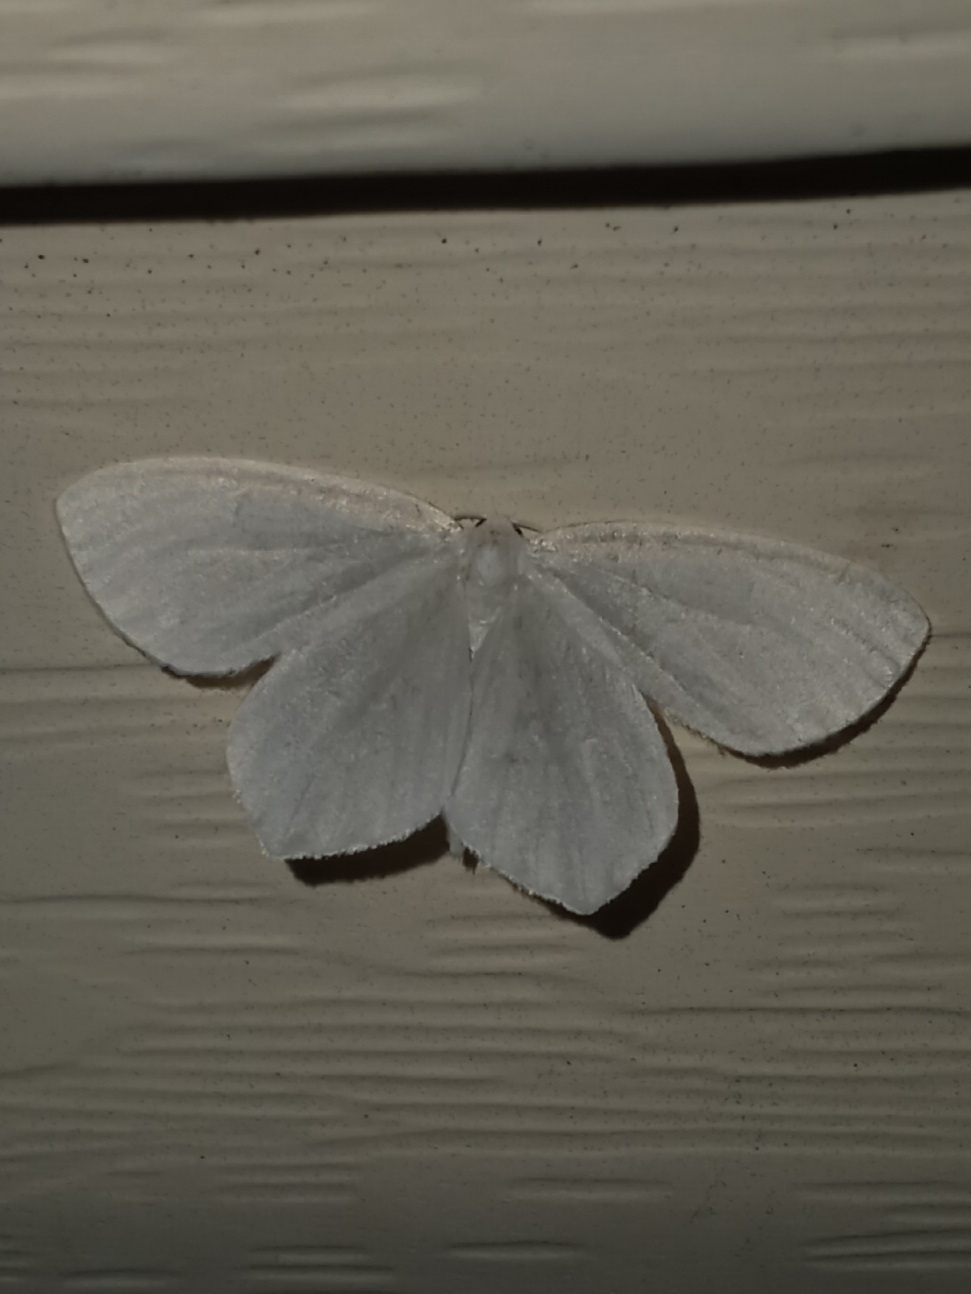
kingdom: Animalia
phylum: Arthropoda
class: Insecta
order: Lepidoptera
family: Geometridae
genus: Eugonobapta
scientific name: Eugonobapta nivosaria
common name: Snowy geometer
